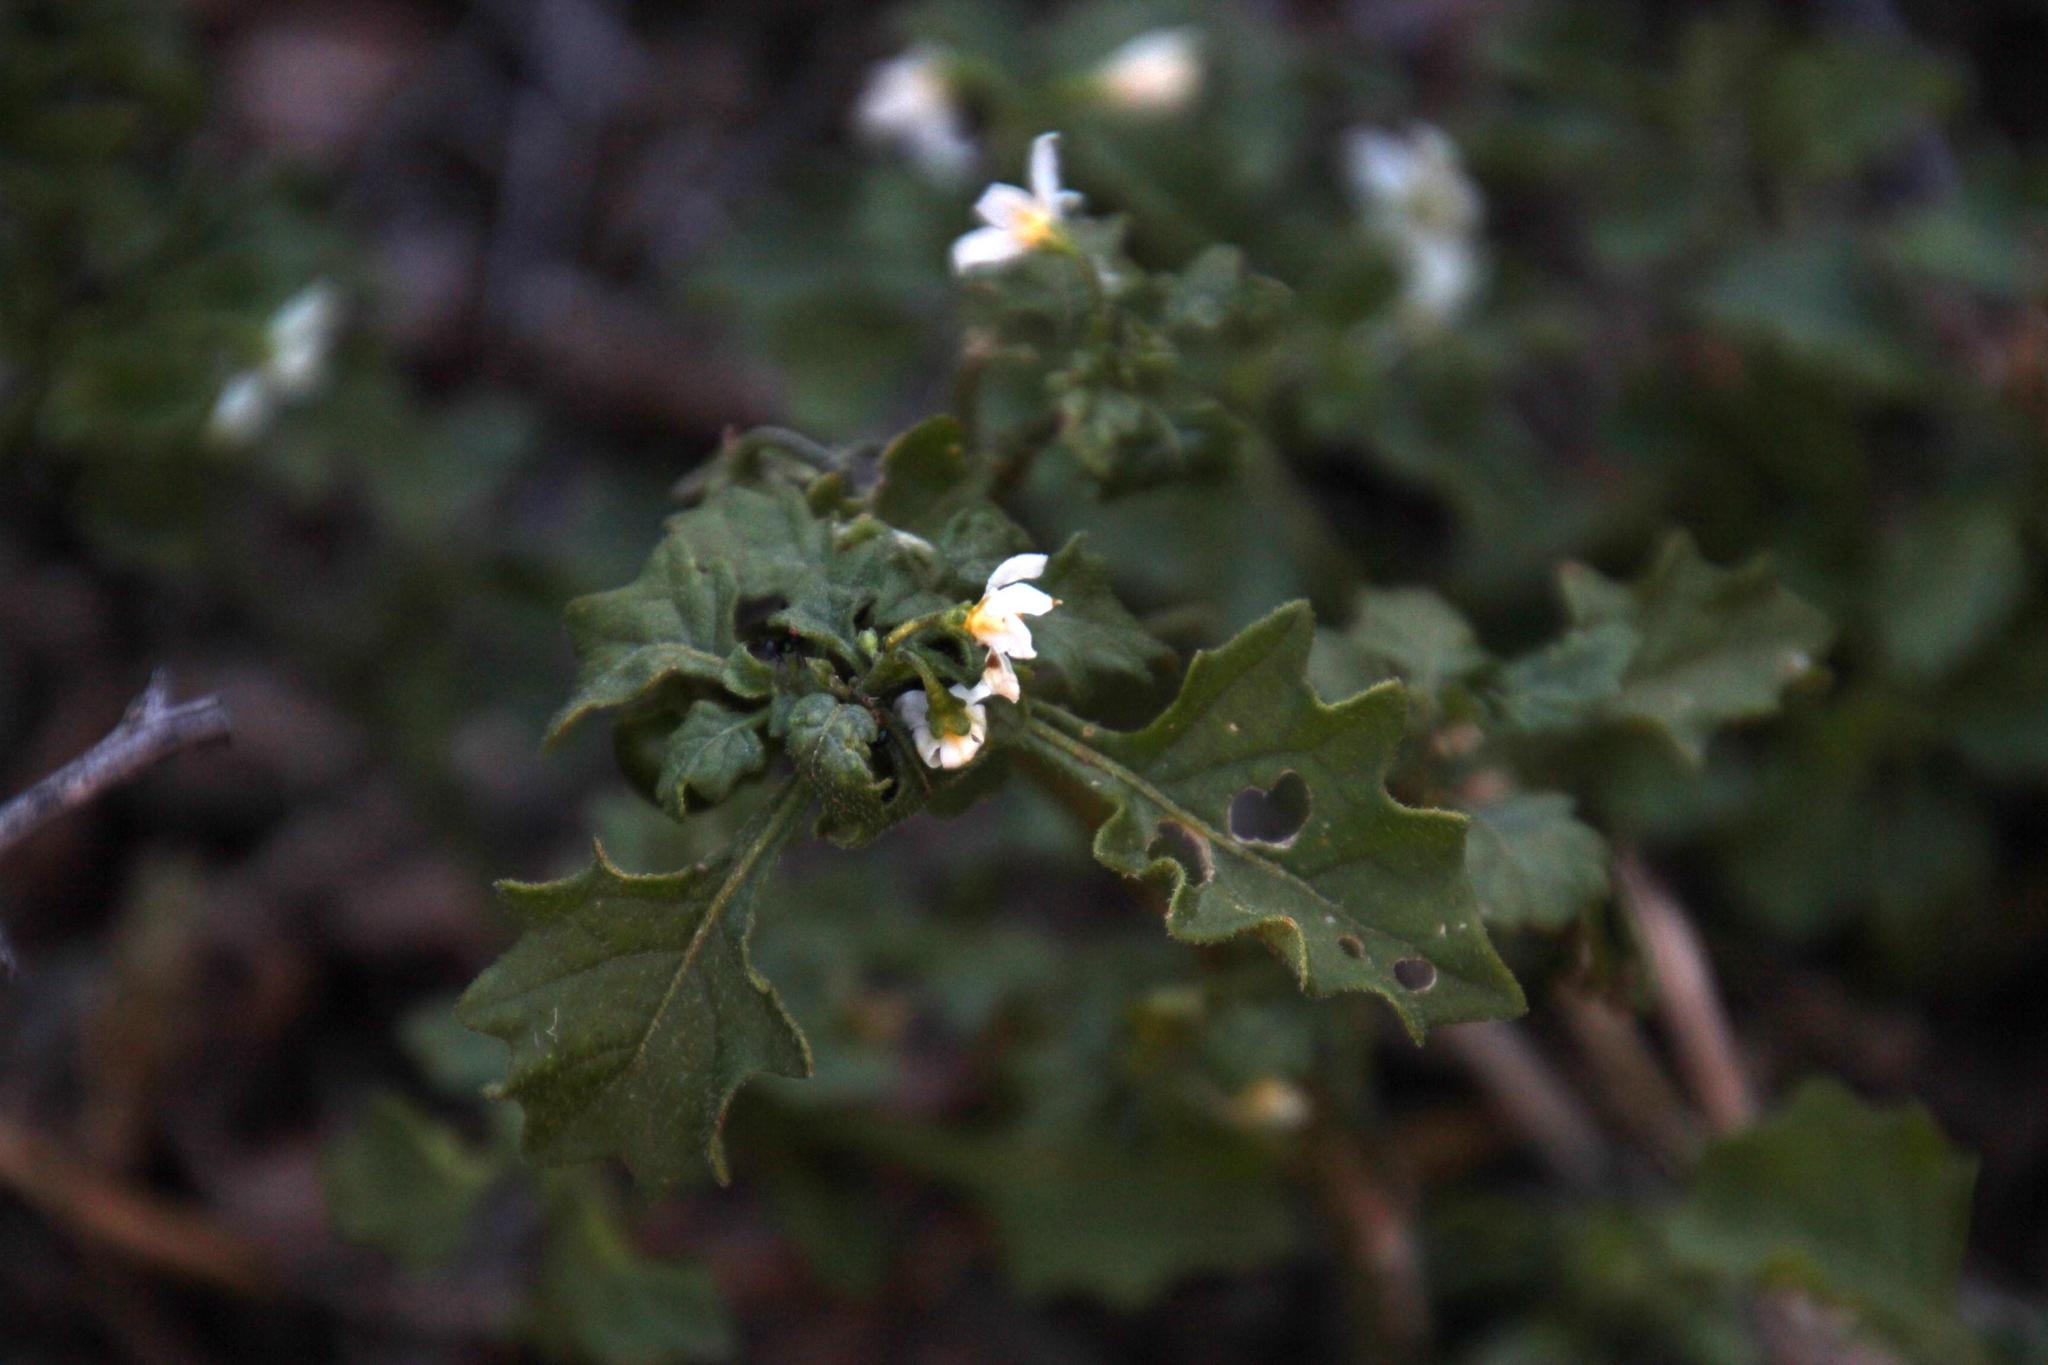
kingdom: Plantae
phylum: Tracheophyta
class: Magnoliopsida
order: Solanales
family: Solanaceae
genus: Solanum
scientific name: Solanum retroflexum
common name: Wonderberry
